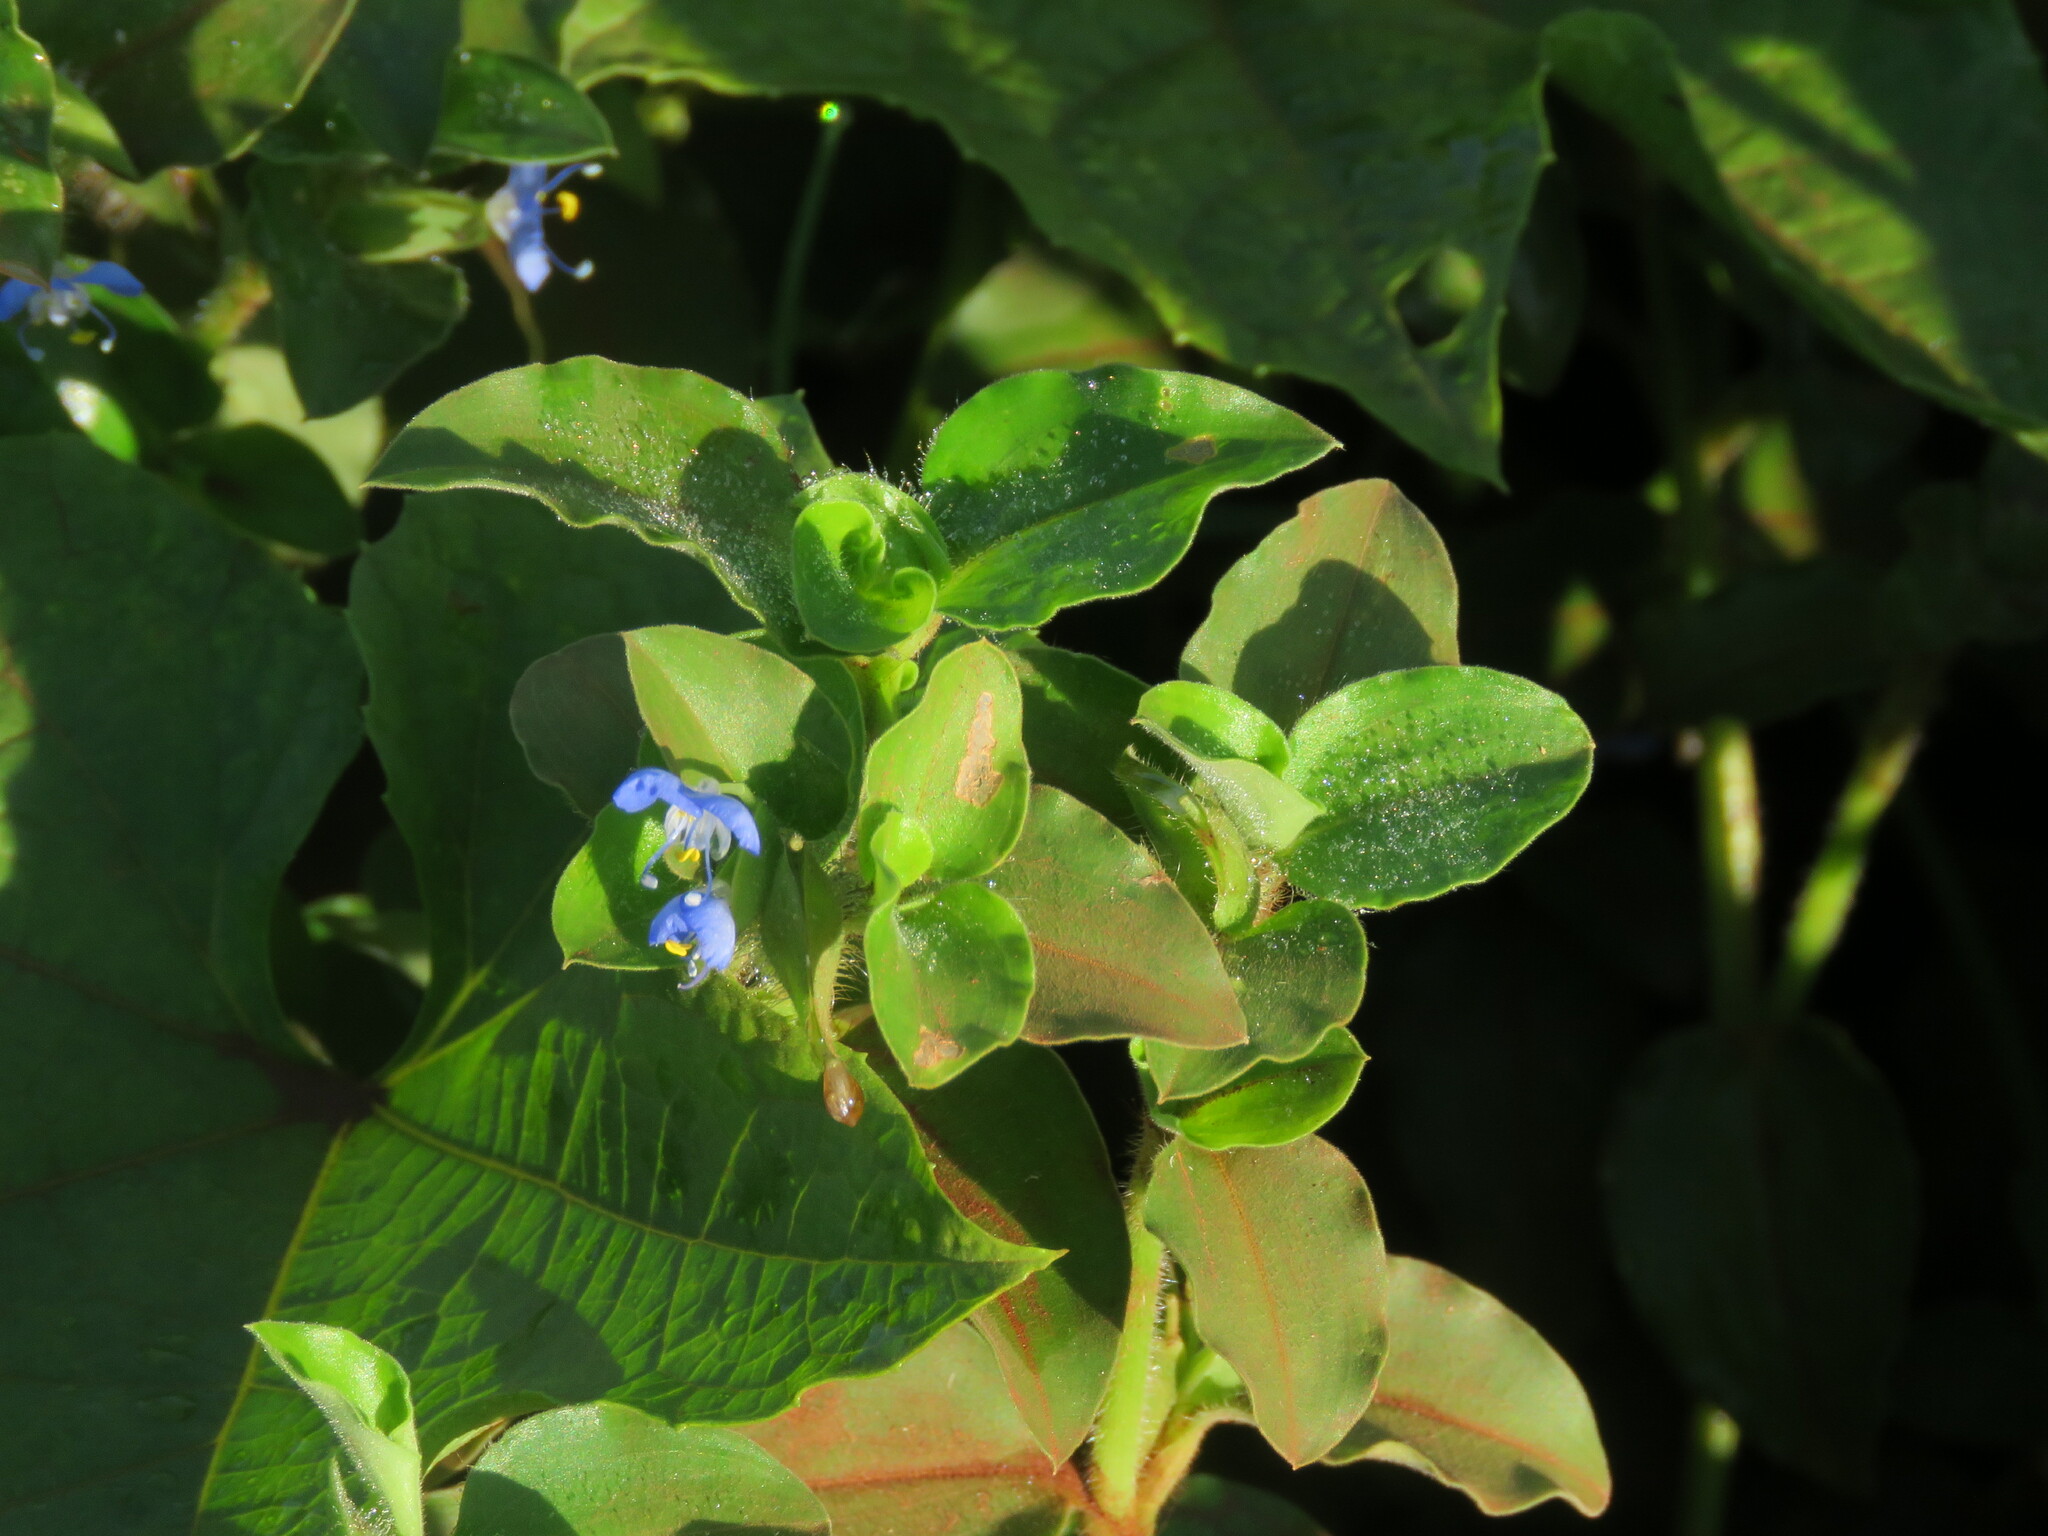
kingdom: Plantae
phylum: Tracheophyta
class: Liliopsida
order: Commelinales
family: Commelinaceae
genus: Commelina
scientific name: Commelina benghalensis
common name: Jio
